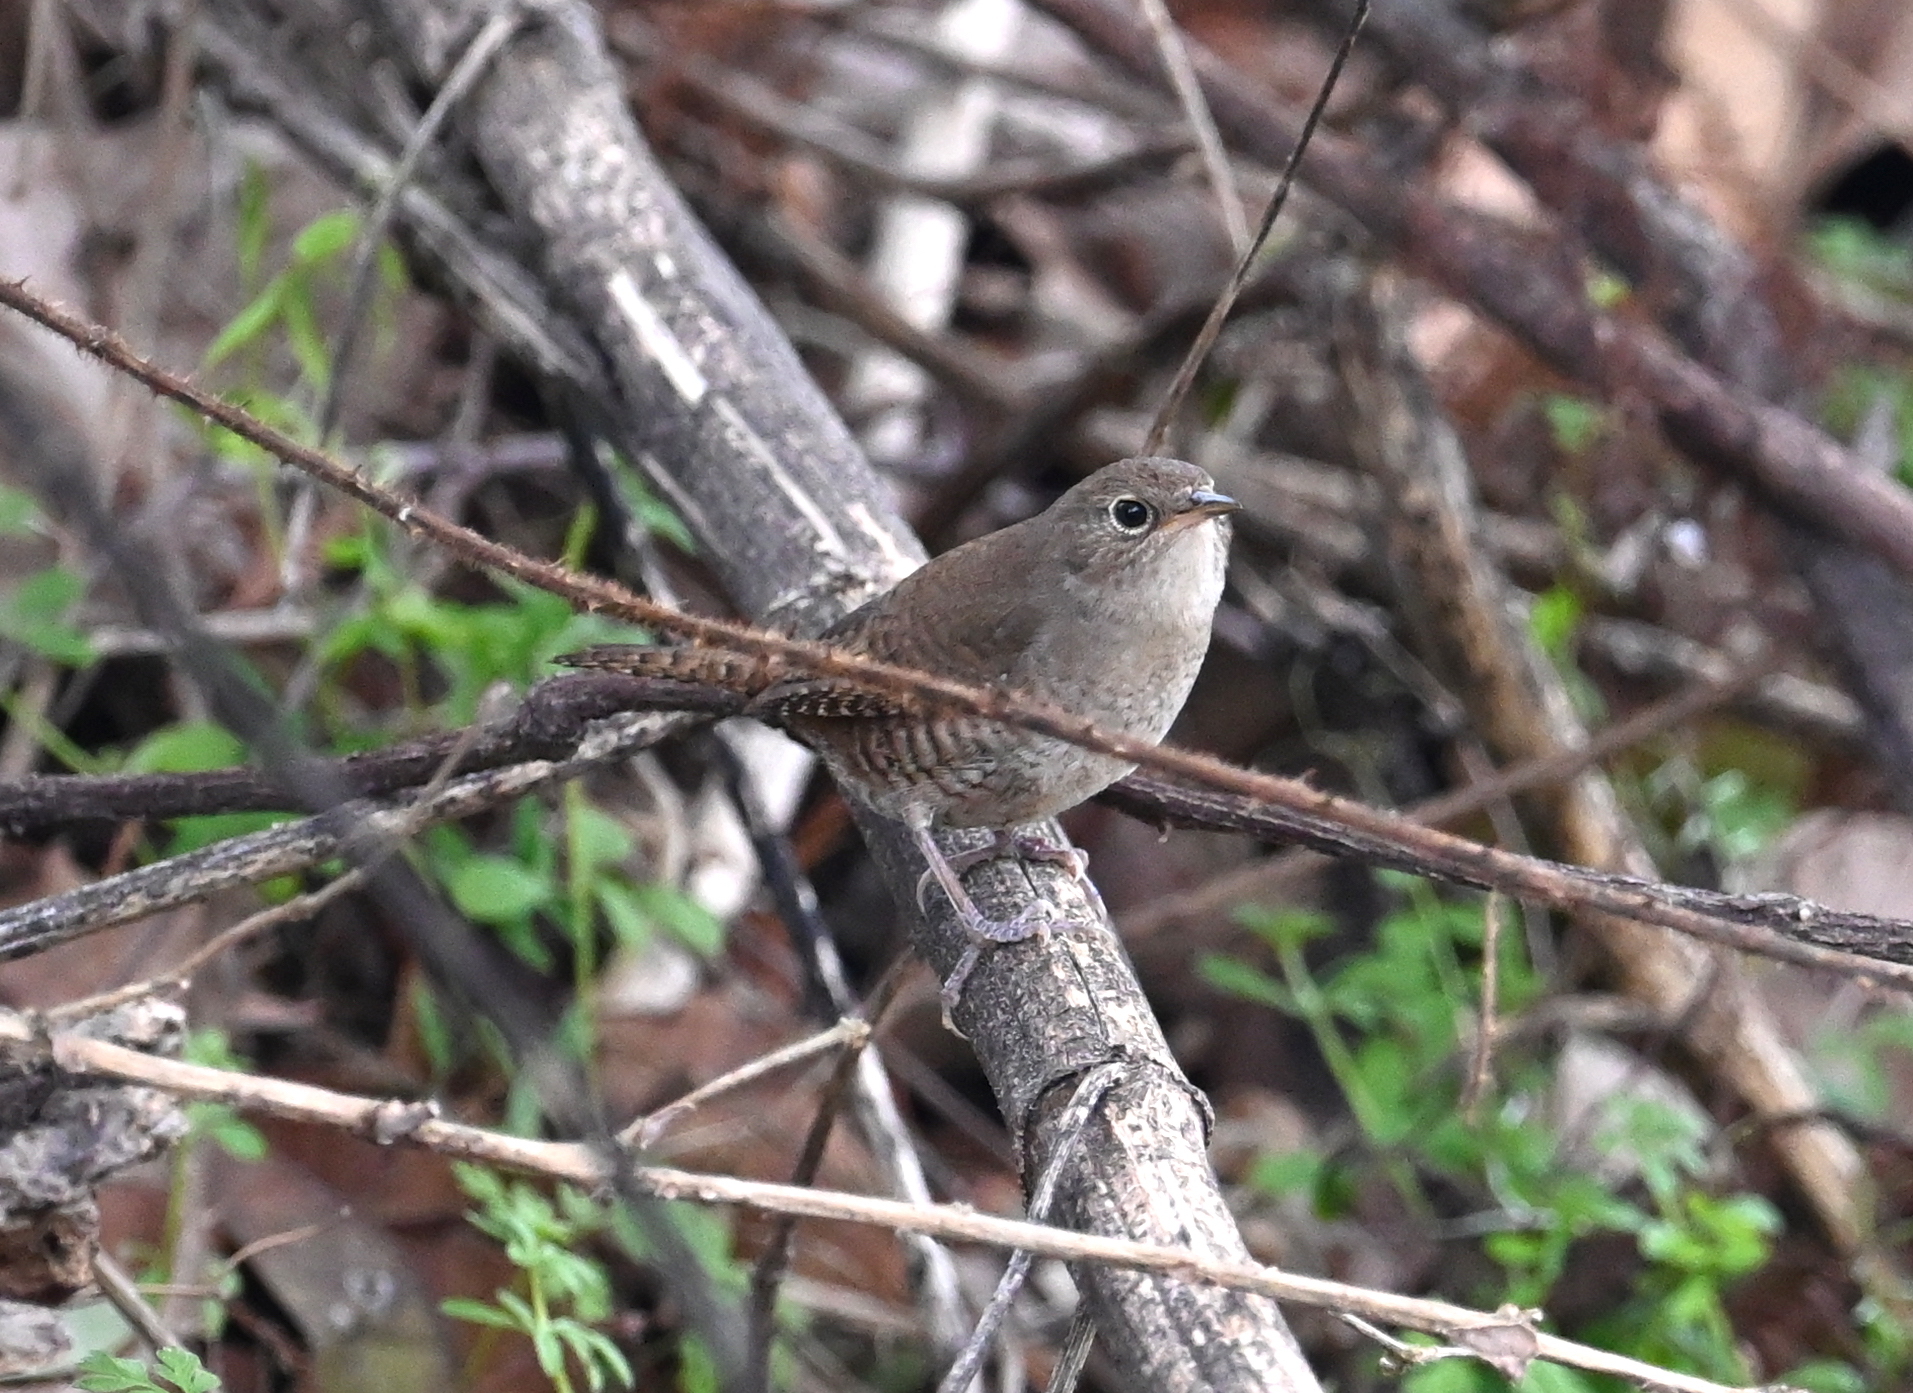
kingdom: Animalia
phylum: Chordata
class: Aves
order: Passeriformes
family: Troglodytidae
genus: Troglodytes
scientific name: Troglodytes aedon
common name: House wren
